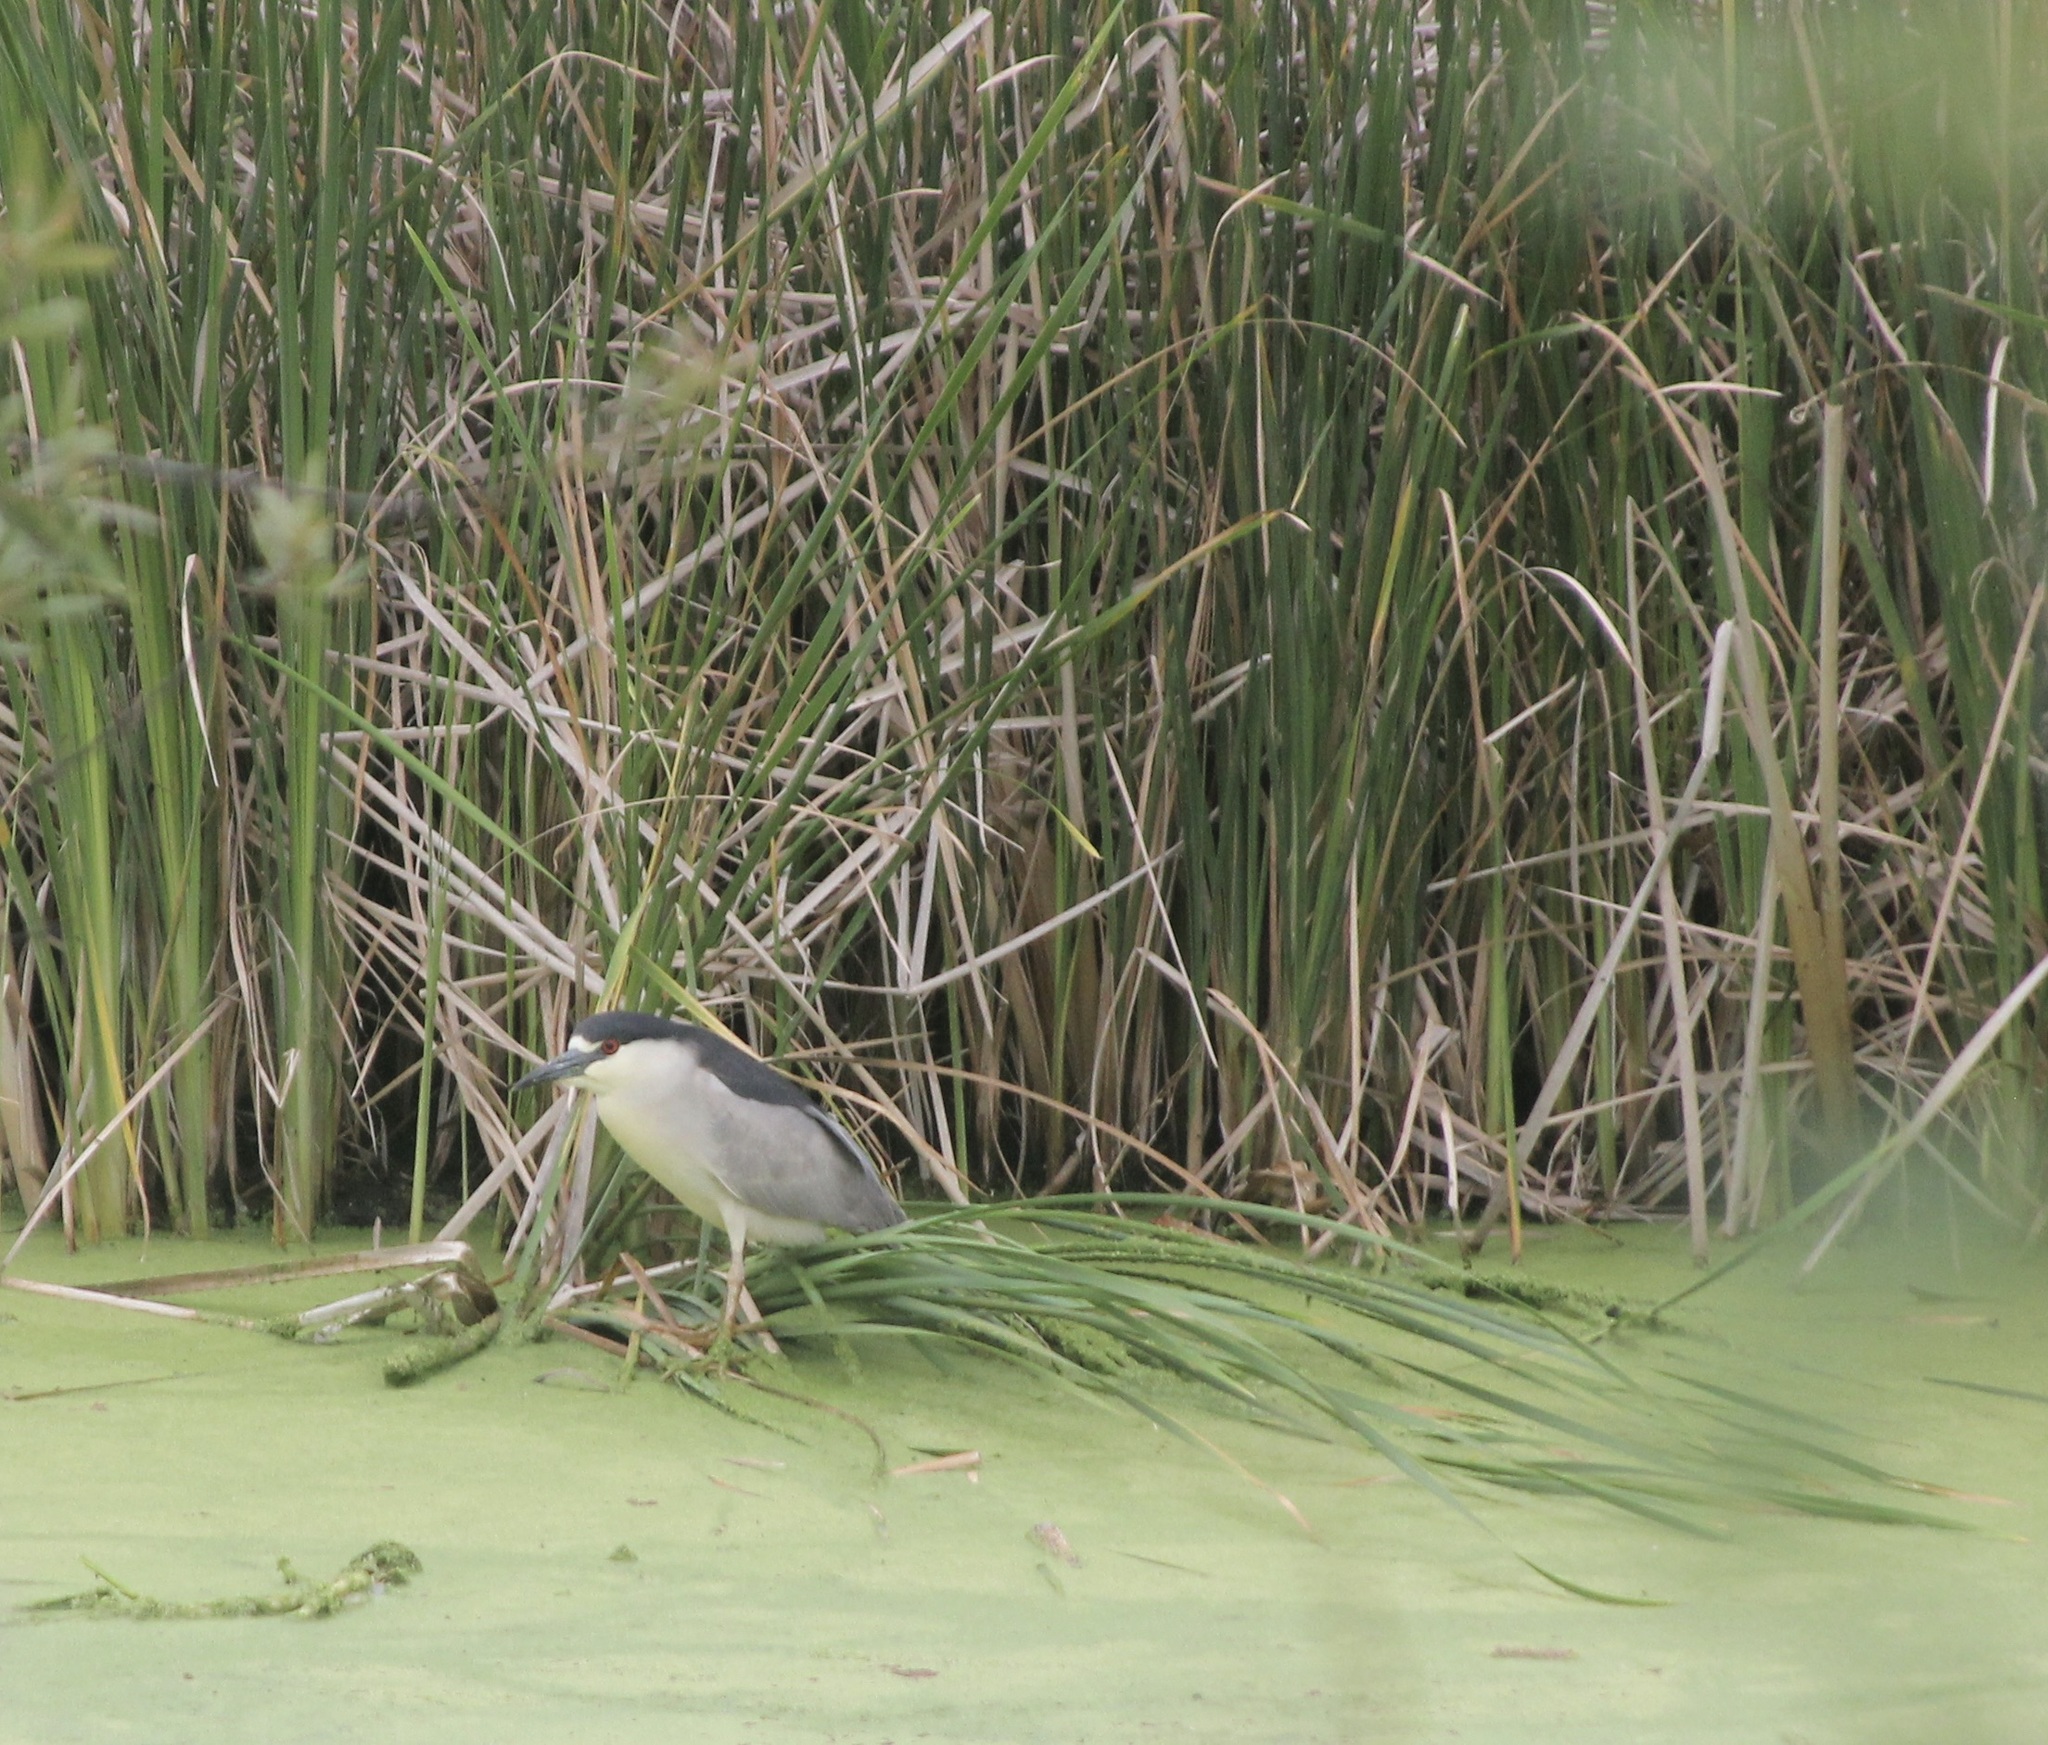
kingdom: Animalia
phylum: Chordata
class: Aves
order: Pelecaniformes
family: Ardeidae
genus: Nycticorax
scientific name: Nycticorax nycticorax
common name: Black-crowned night heron
